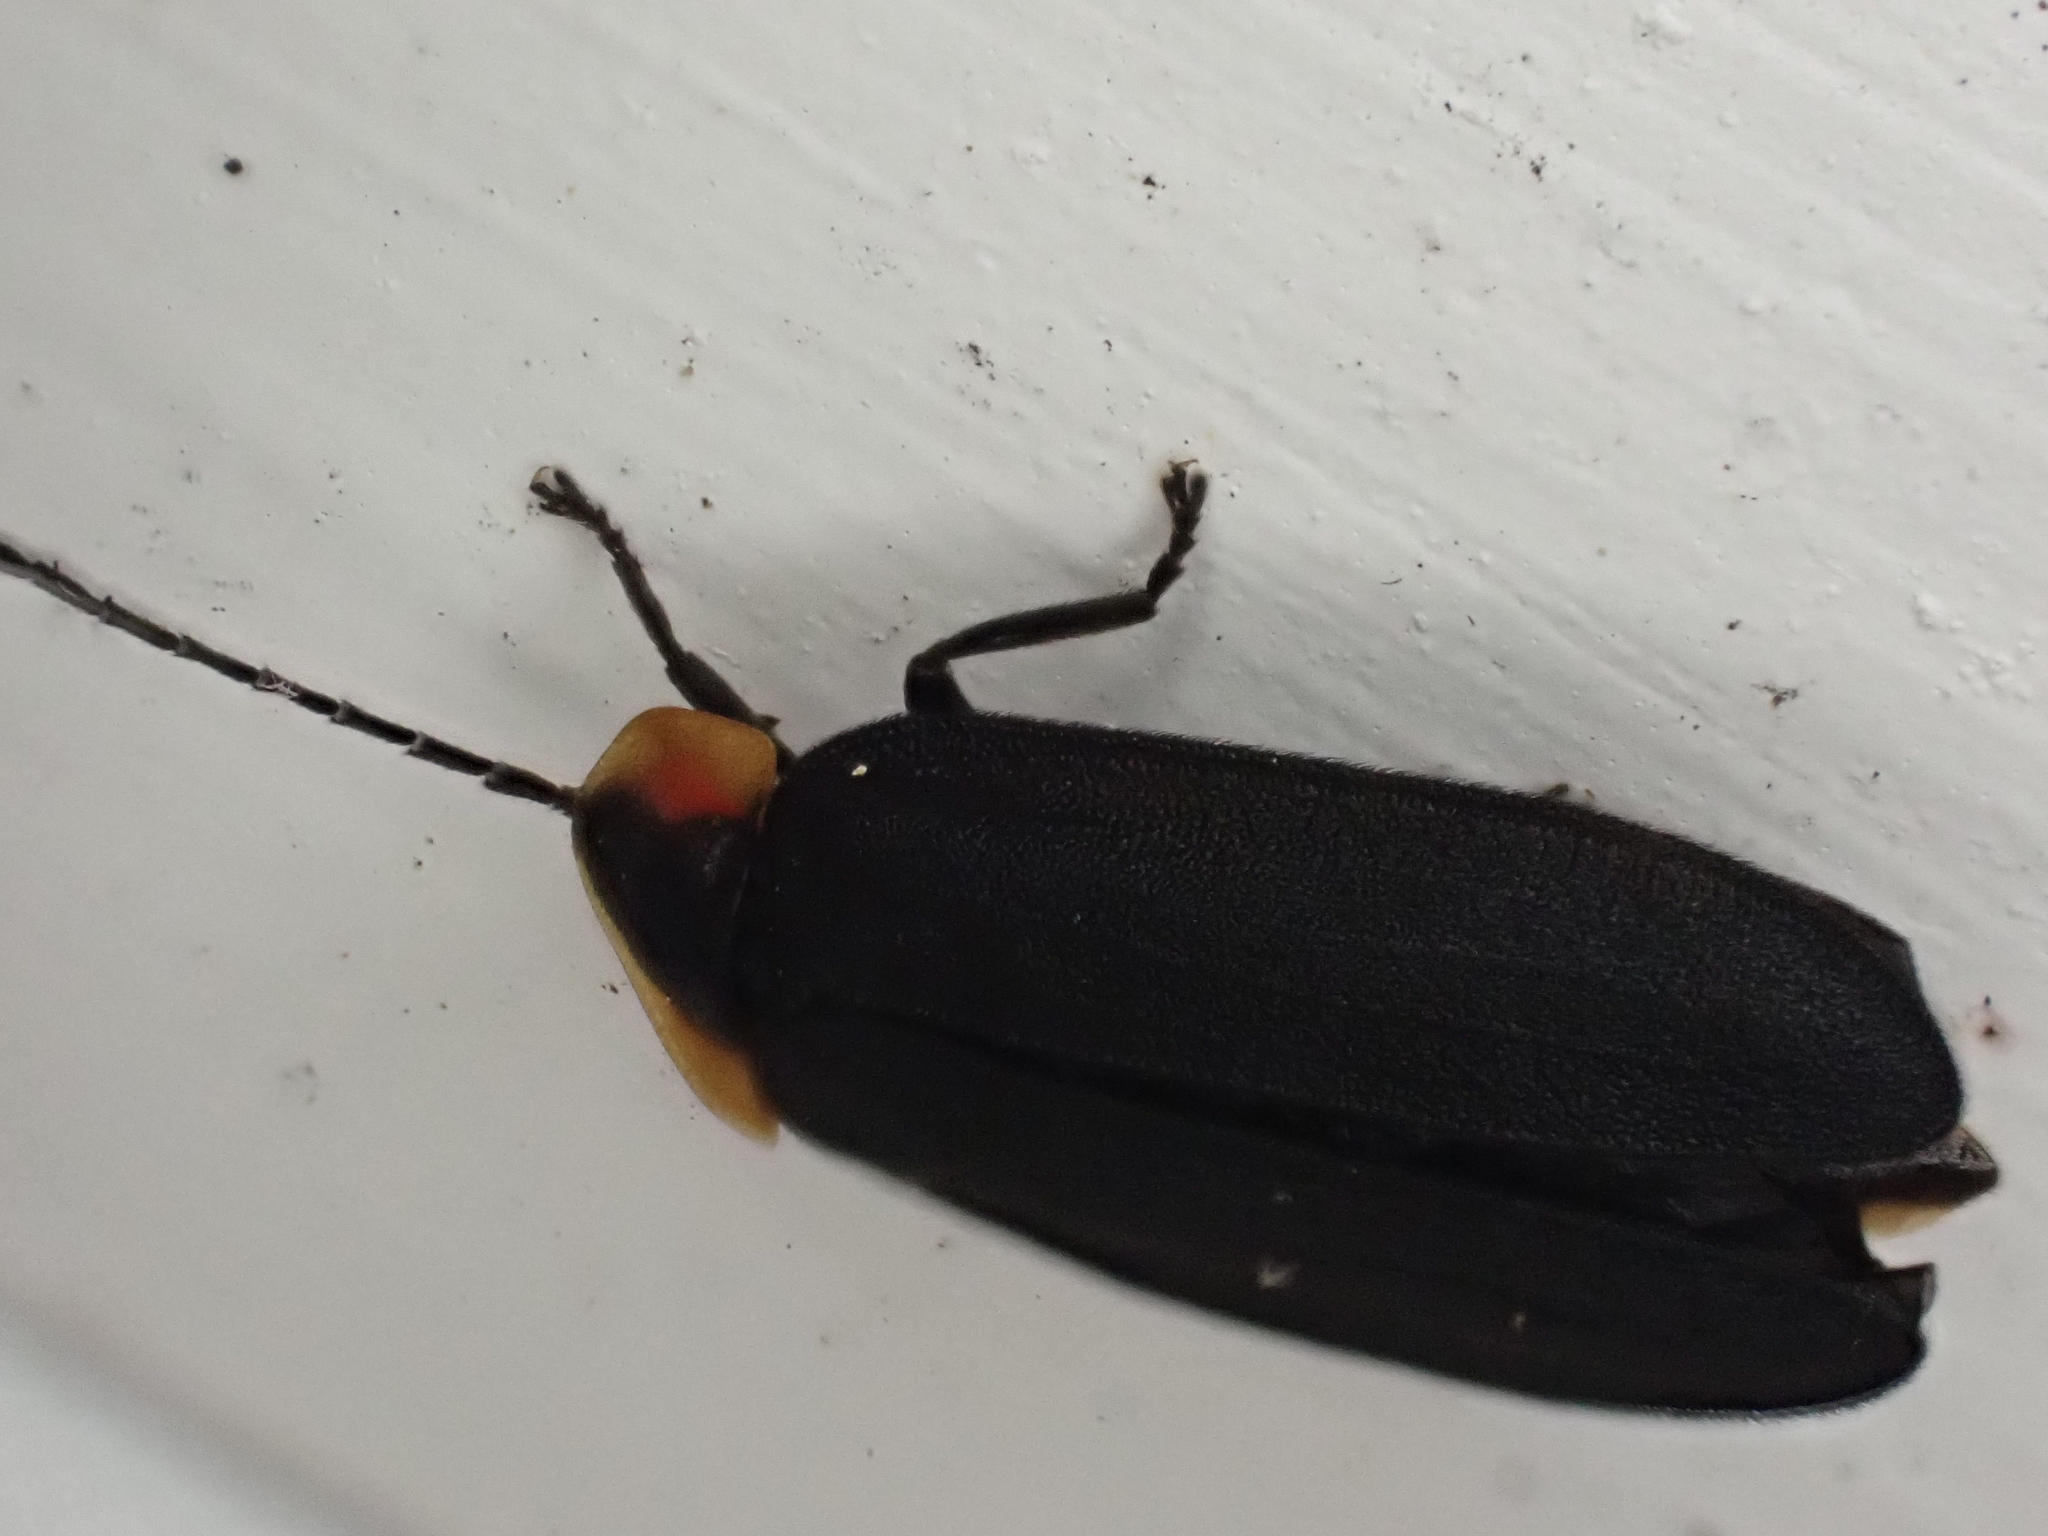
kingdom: Animalia
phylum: Arthropoda
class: Insecta
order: Coleoptera
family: Lampyridae
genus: Lucidota
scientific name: Lucidota atra
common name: Black firefly
